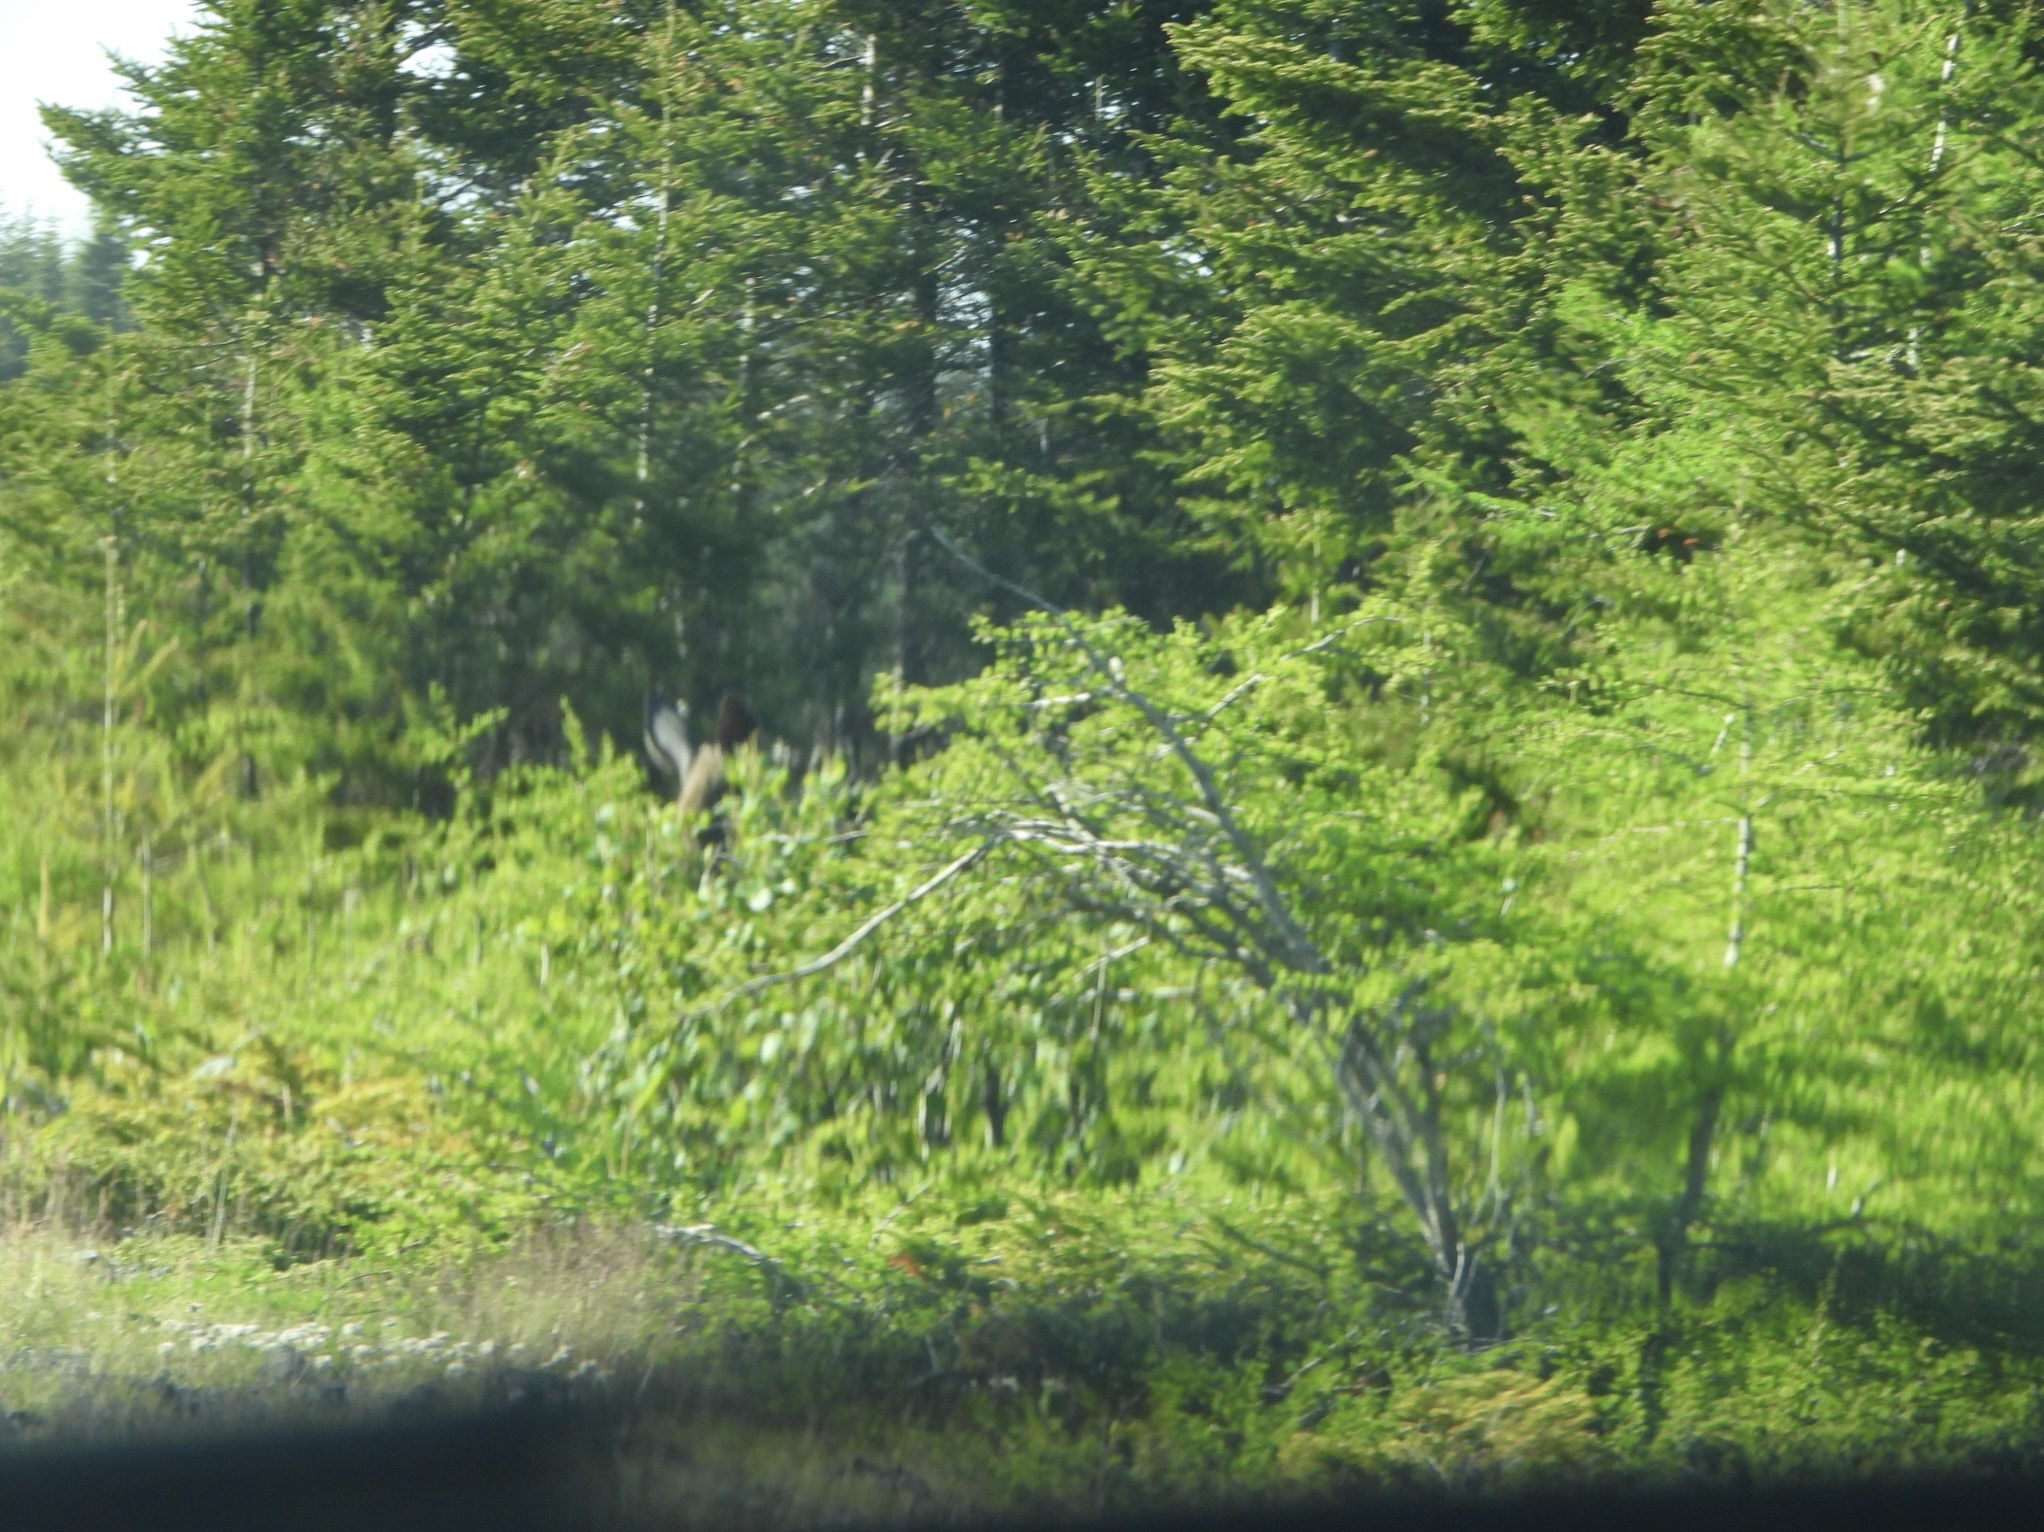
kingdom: Animalia
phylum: Chordata
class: Mammalia
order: Artiodactyla
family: Cervidae
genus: Alces
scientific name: Alces americanus
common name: Moose
